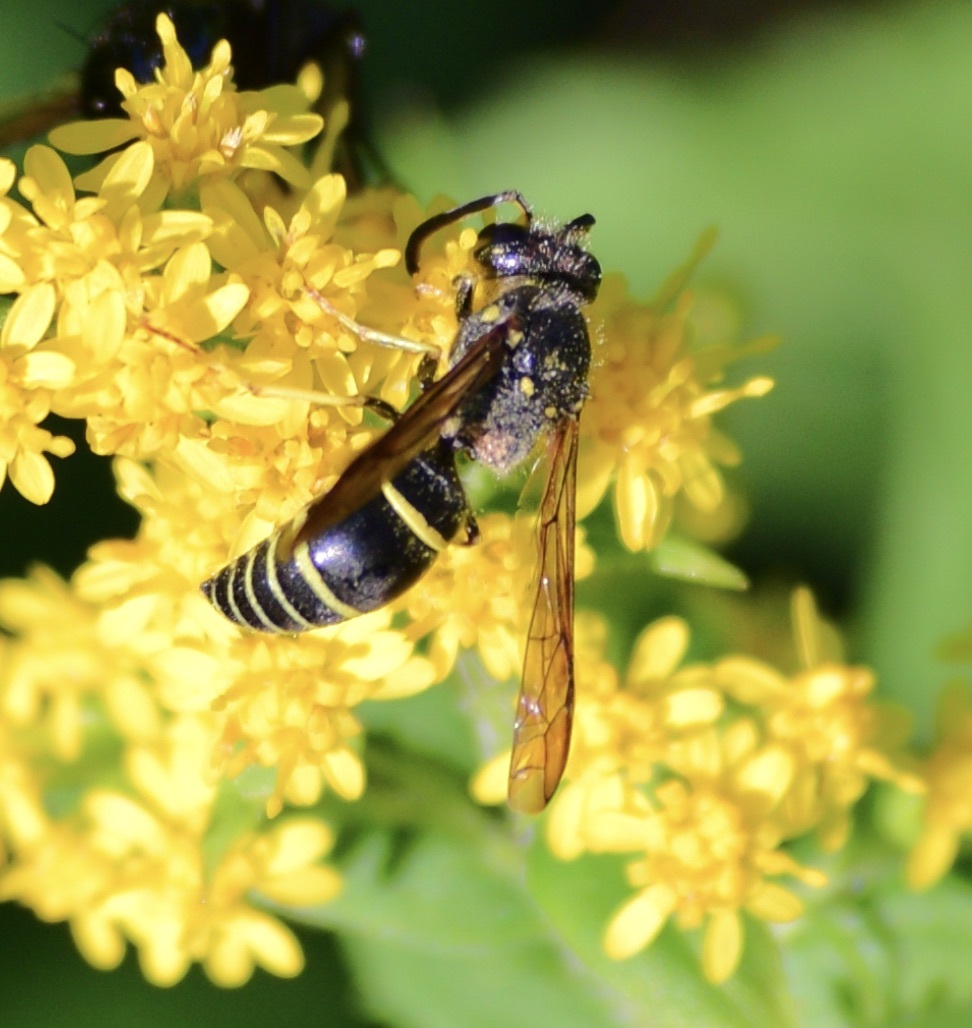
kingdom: Animalia
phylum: Arthropoda
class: Insecta
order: Hymenoptera
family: Vespidae
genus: Ancistrocerus
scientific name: Ancistrocerus
